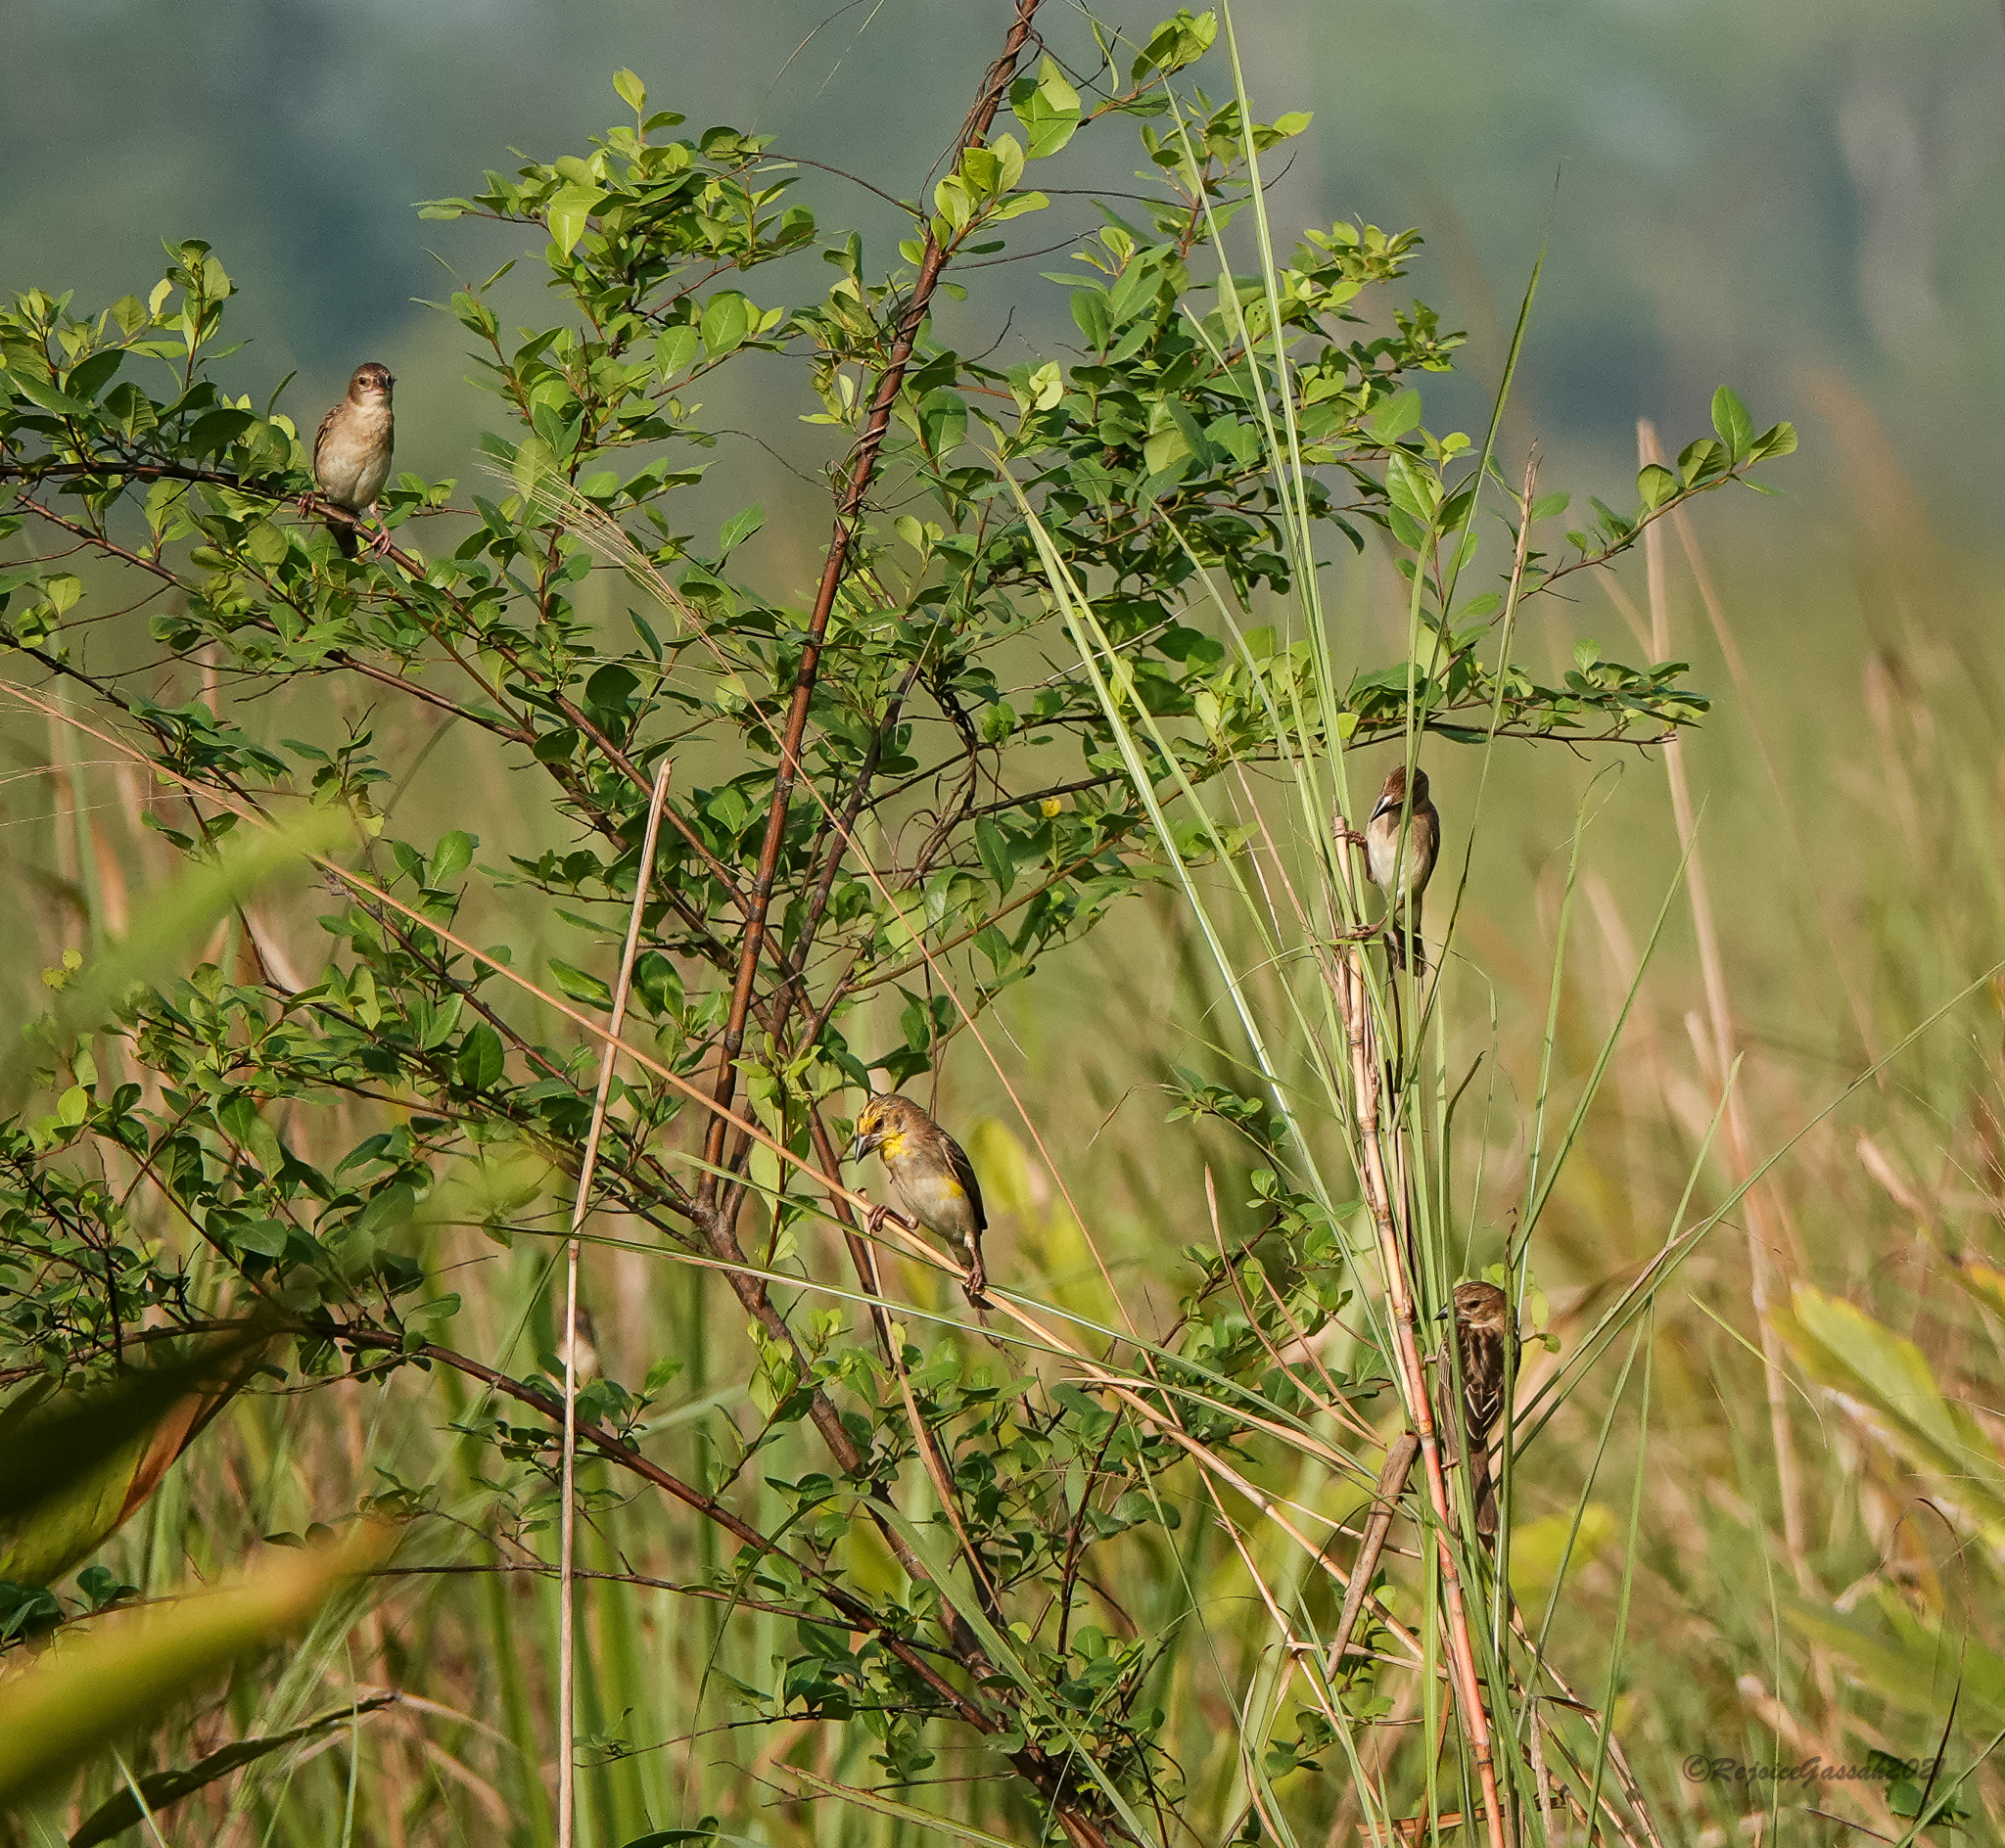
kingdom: Animalia
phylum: Chordata
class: Aves
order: Passeriformes
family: Ploceidae
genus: Ploceus
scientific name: Ploceus megarhynchus
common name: Finn's weaver
